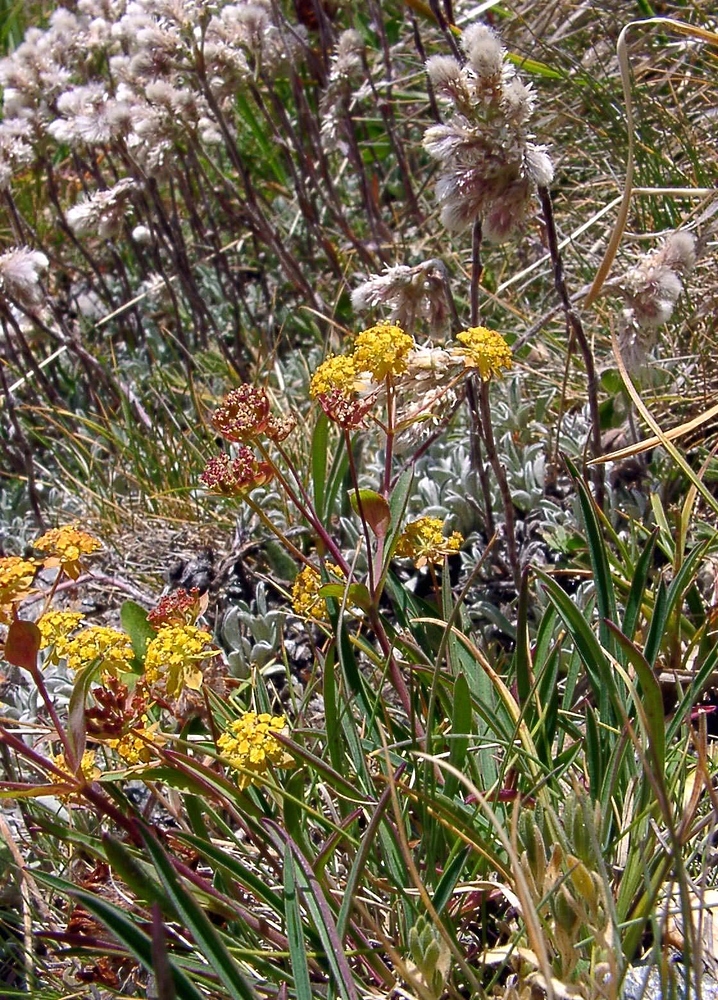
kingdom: Plantae
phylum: Tracheophyta
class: Magnoliopsida
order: Apiales
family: Apiaceae
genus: Bupleurum
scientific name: Bupleurum ranunculoides
